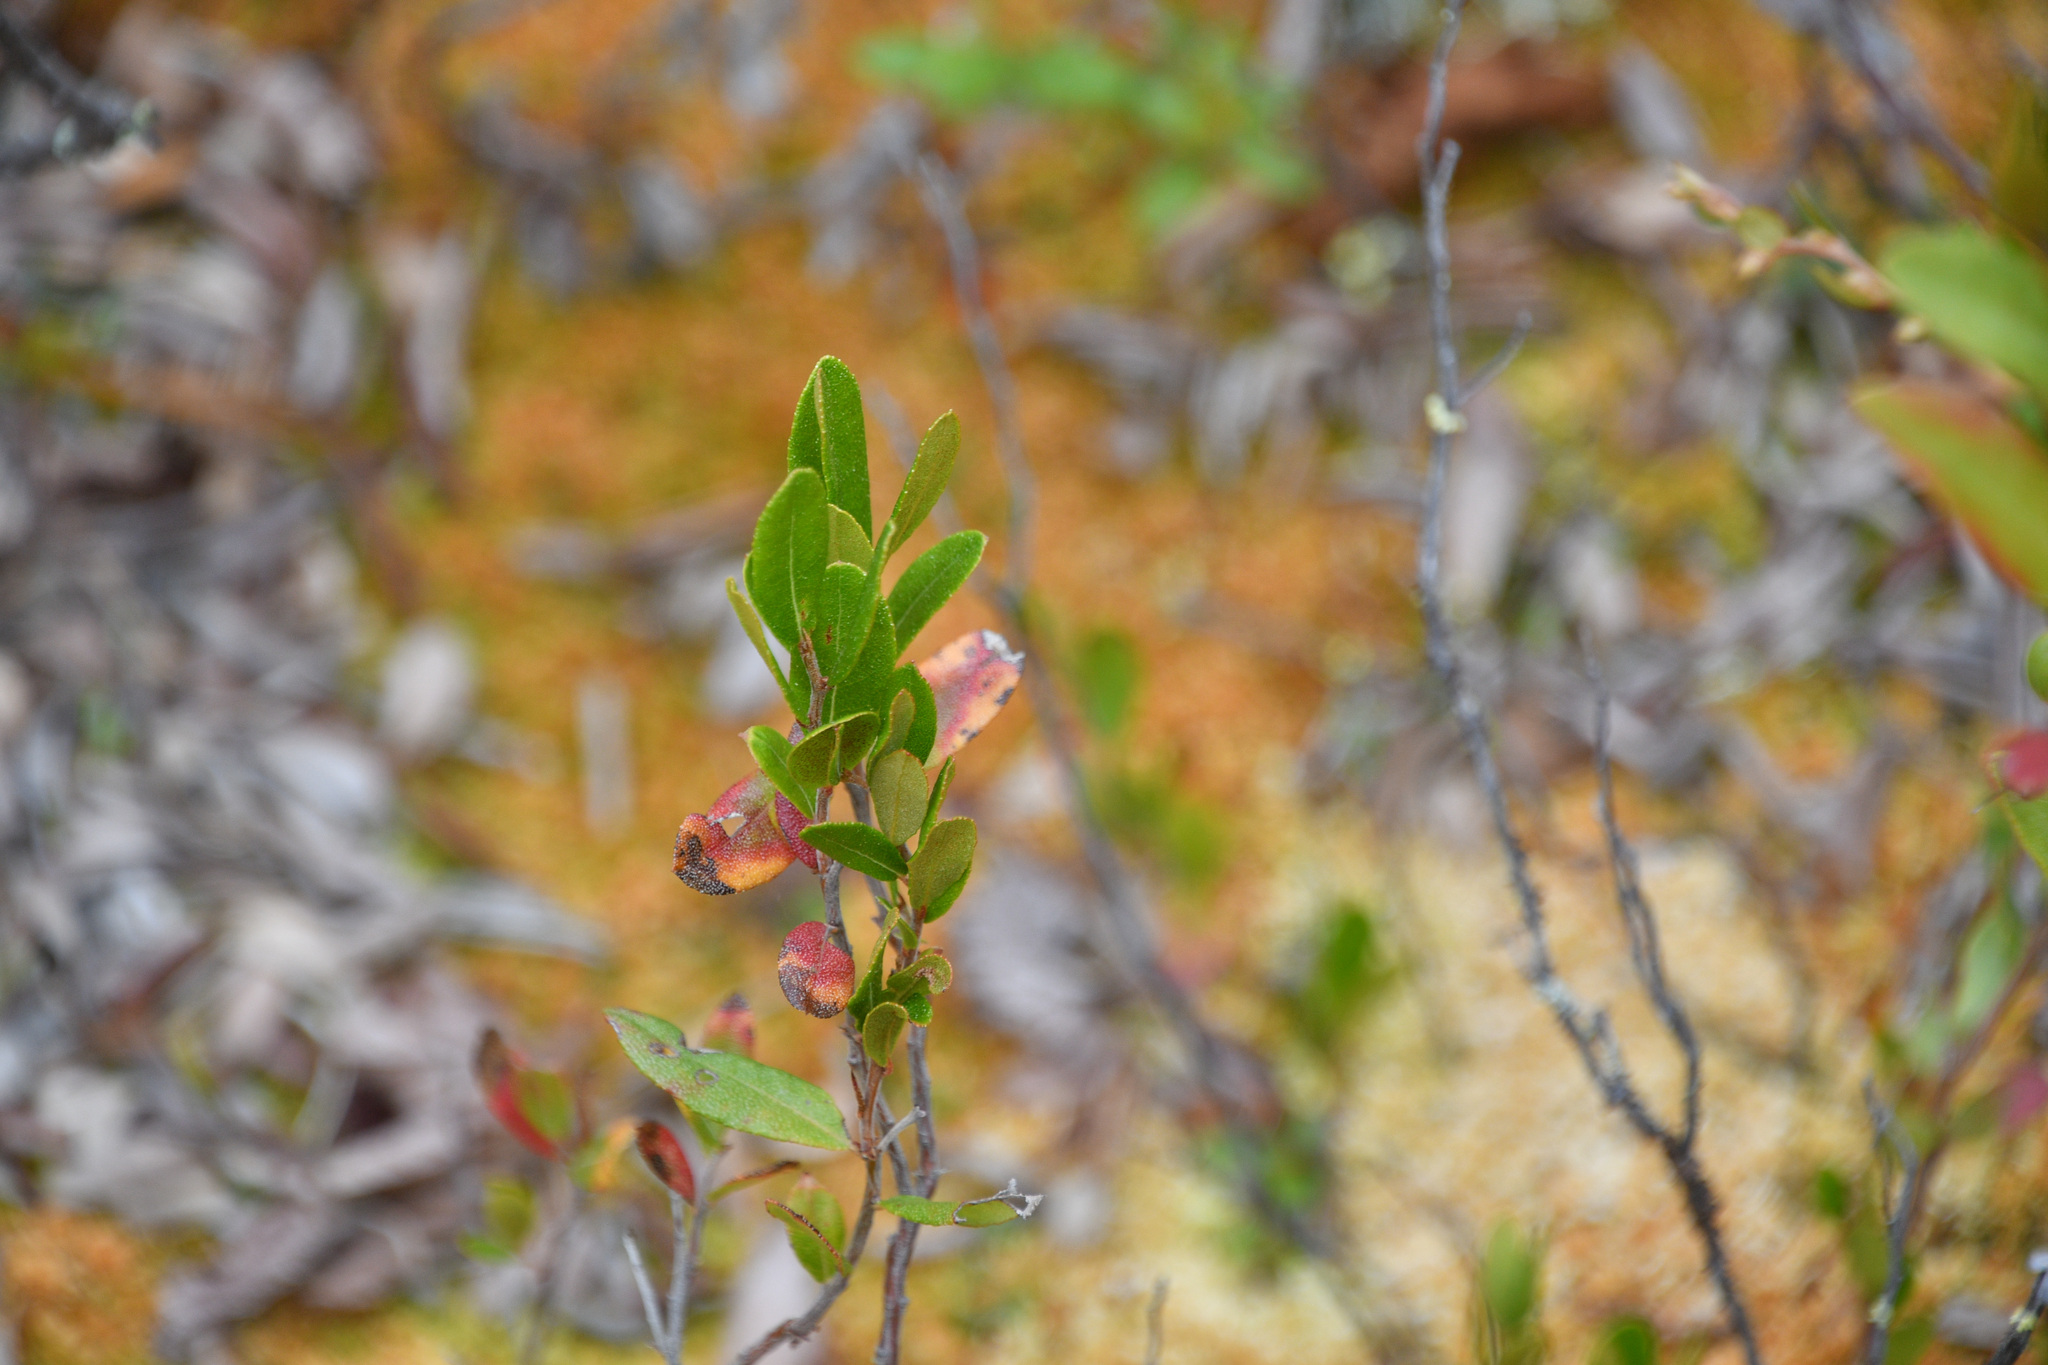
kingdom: Plantae
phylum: Tracheophyta
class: Magnoliopsida
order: Ericales
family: Ericaceae
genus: Chamaedaphne
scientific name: Chamaedaphne calyculata
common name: Leatherleaf
